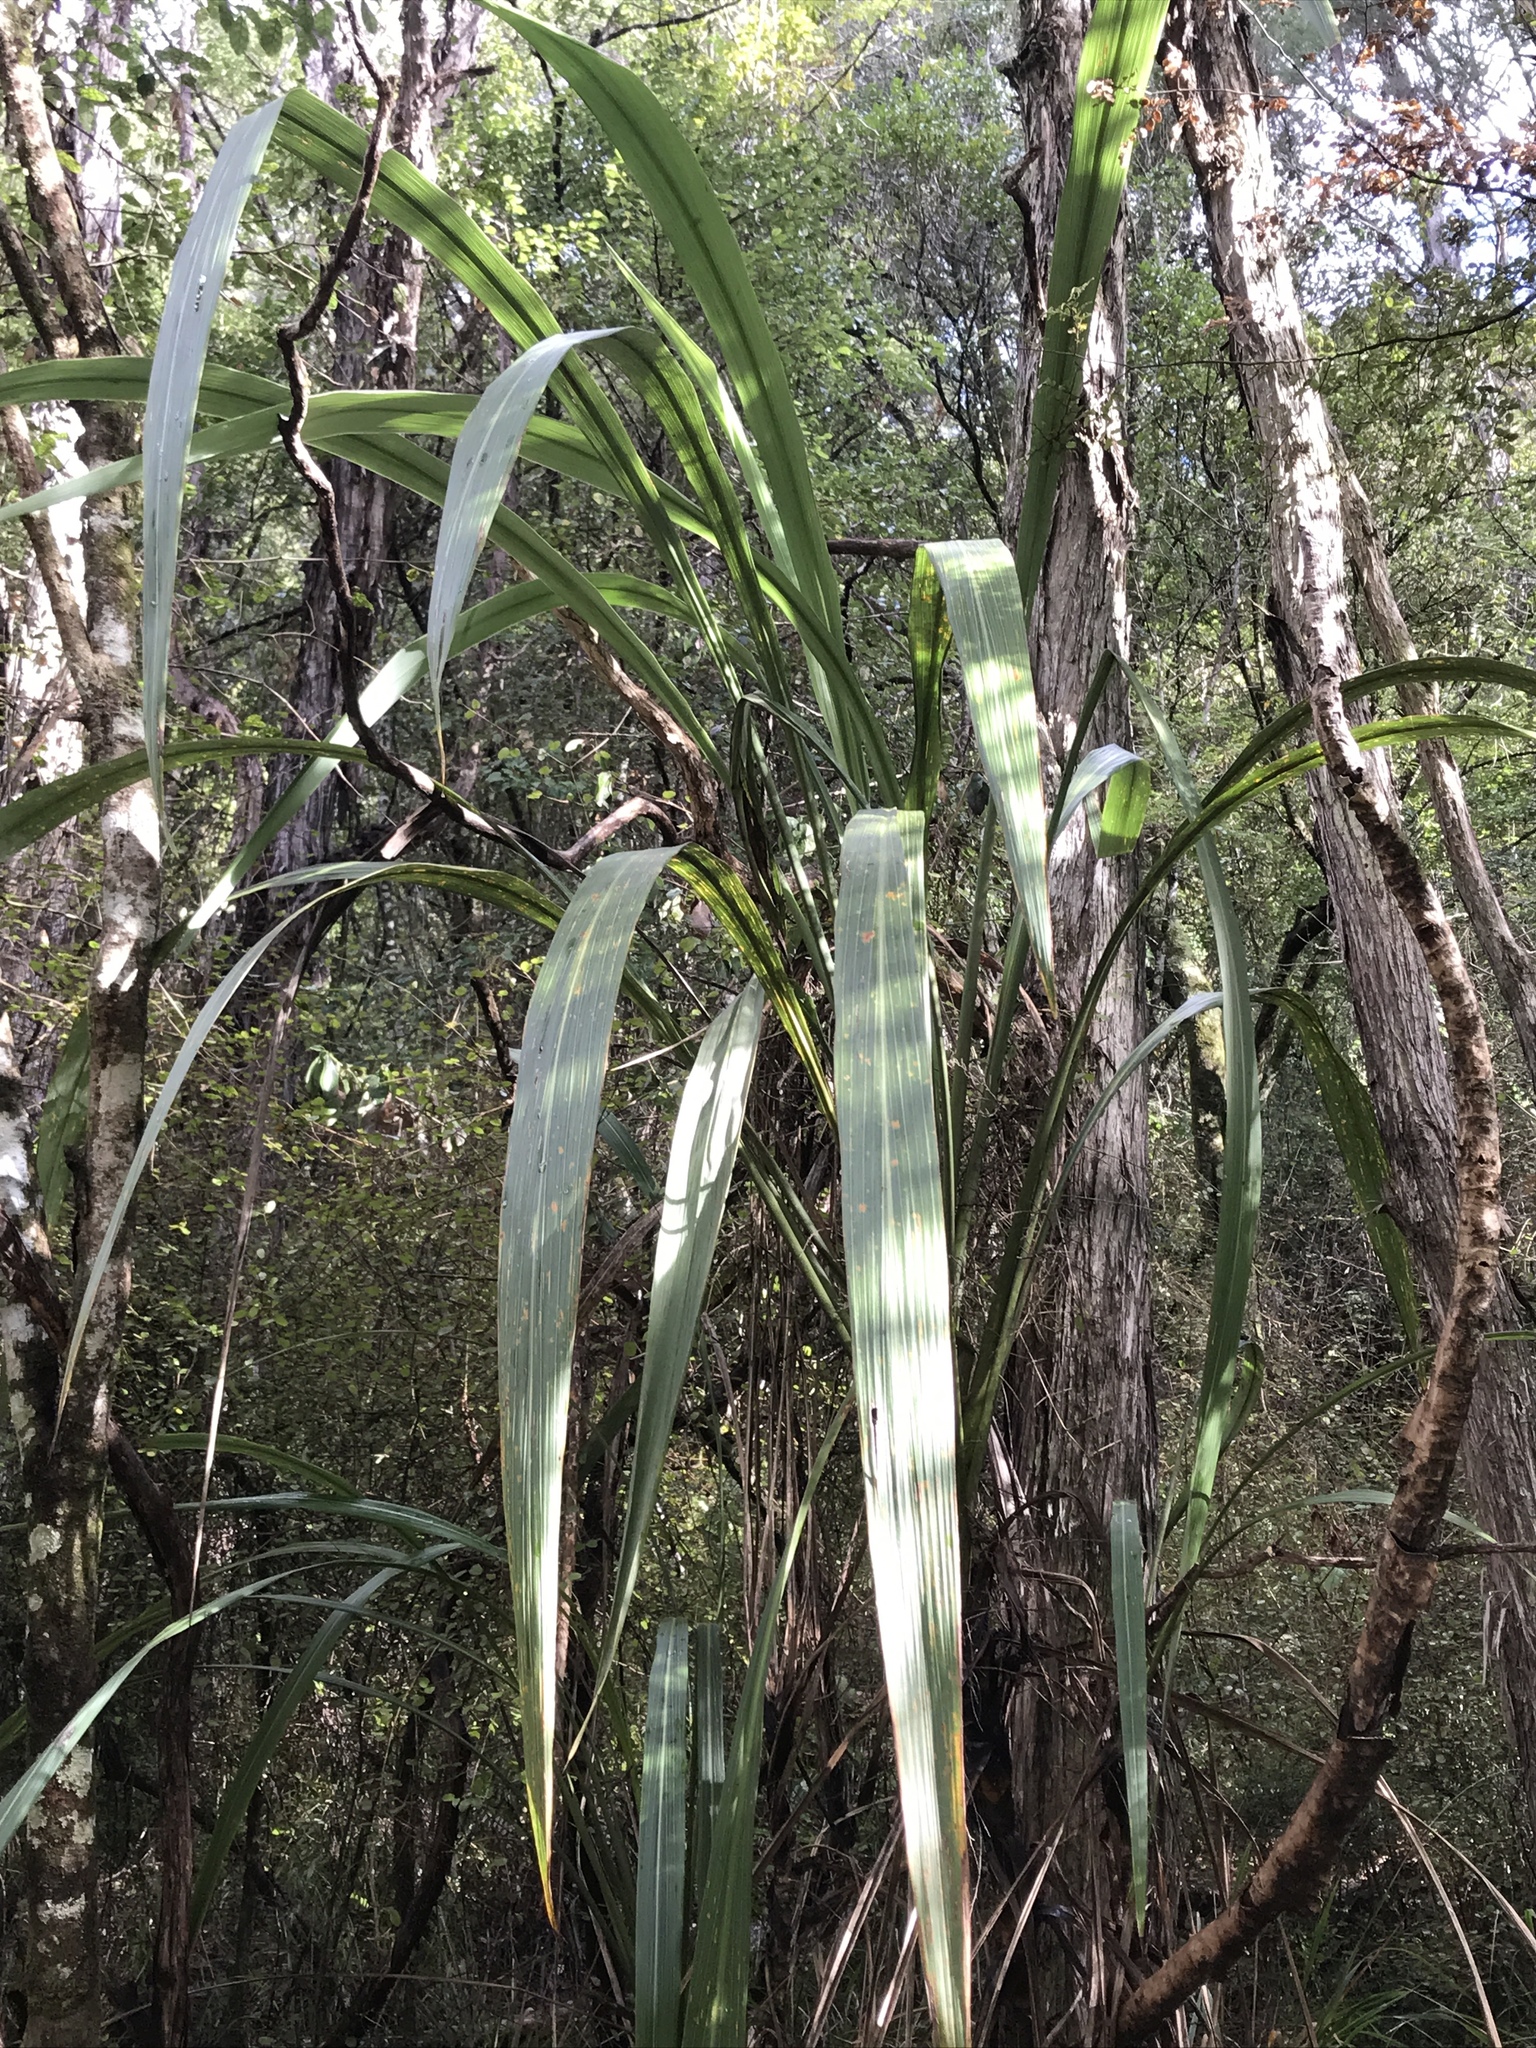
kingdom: Plantae
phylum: Tracheophyta
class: Liliopsida
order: Asparagales
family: Asparagaceae
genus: Cordyline
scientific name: Cordyline banksii
